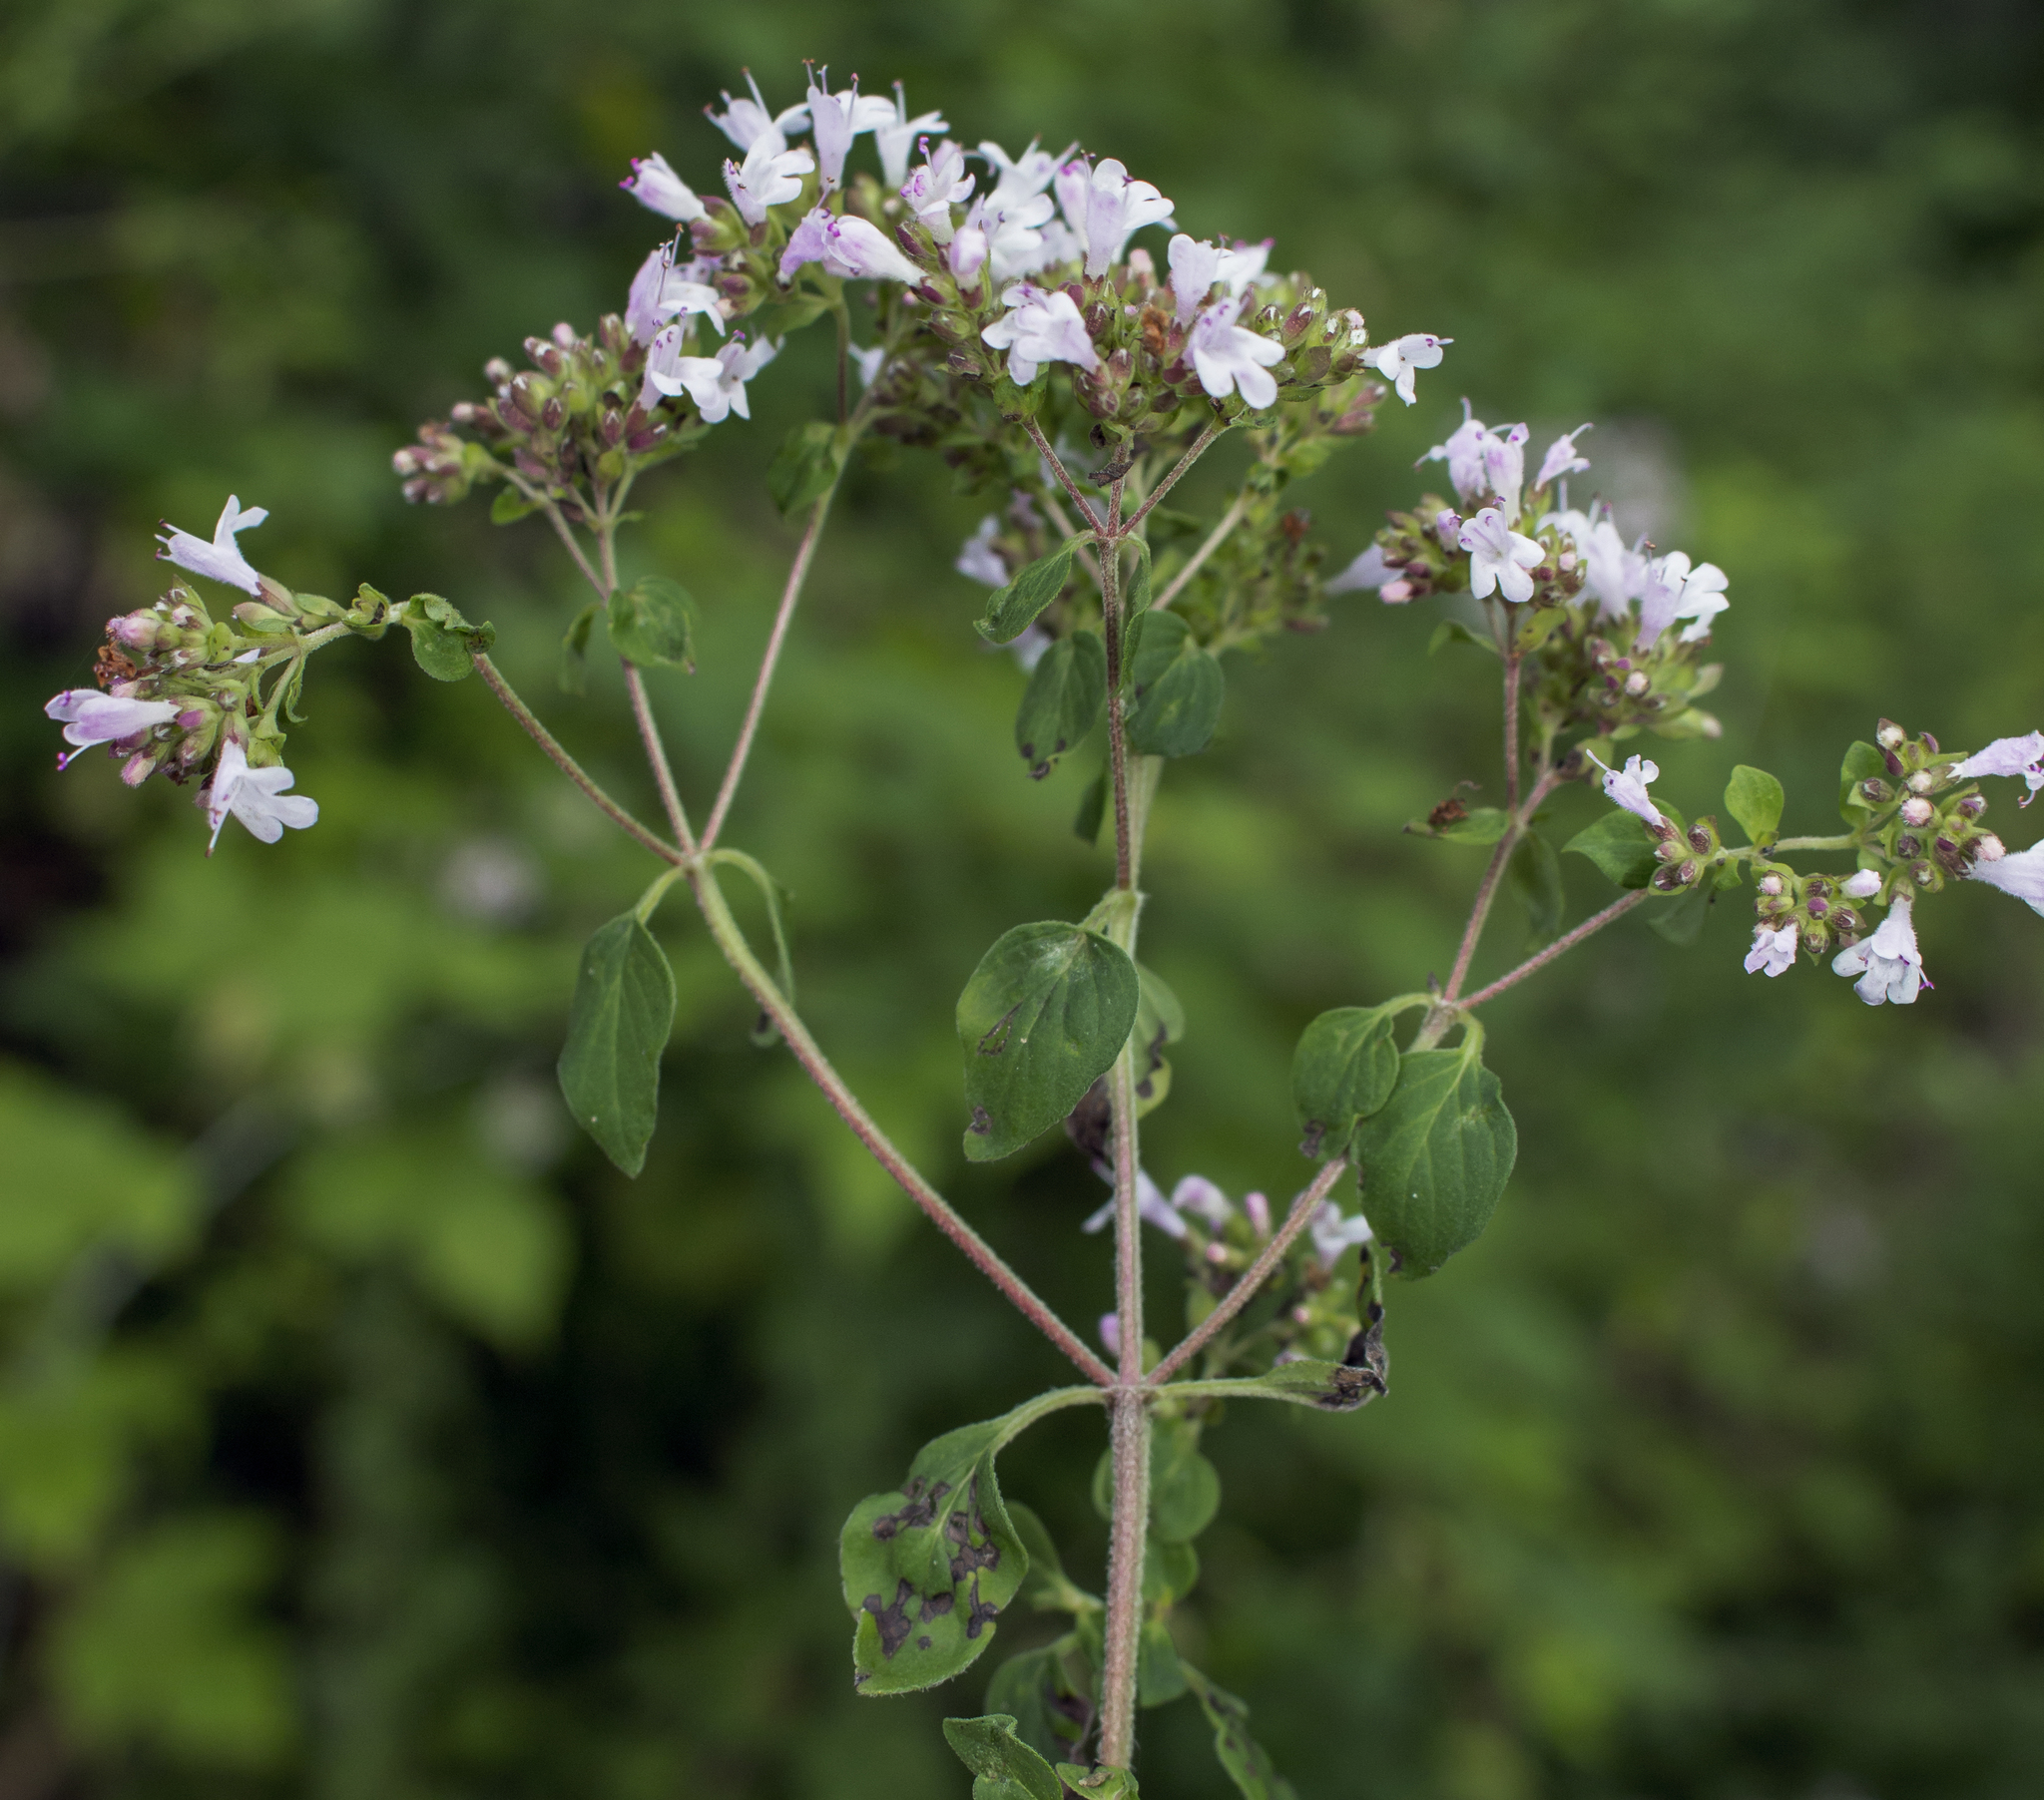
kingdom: Plantae
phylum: Tracheophyta
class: Magnoliopsida
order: Lamiales
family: Lamiaceae
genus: Origanum
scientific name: Origanum vulgare
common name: Wild marjoram
